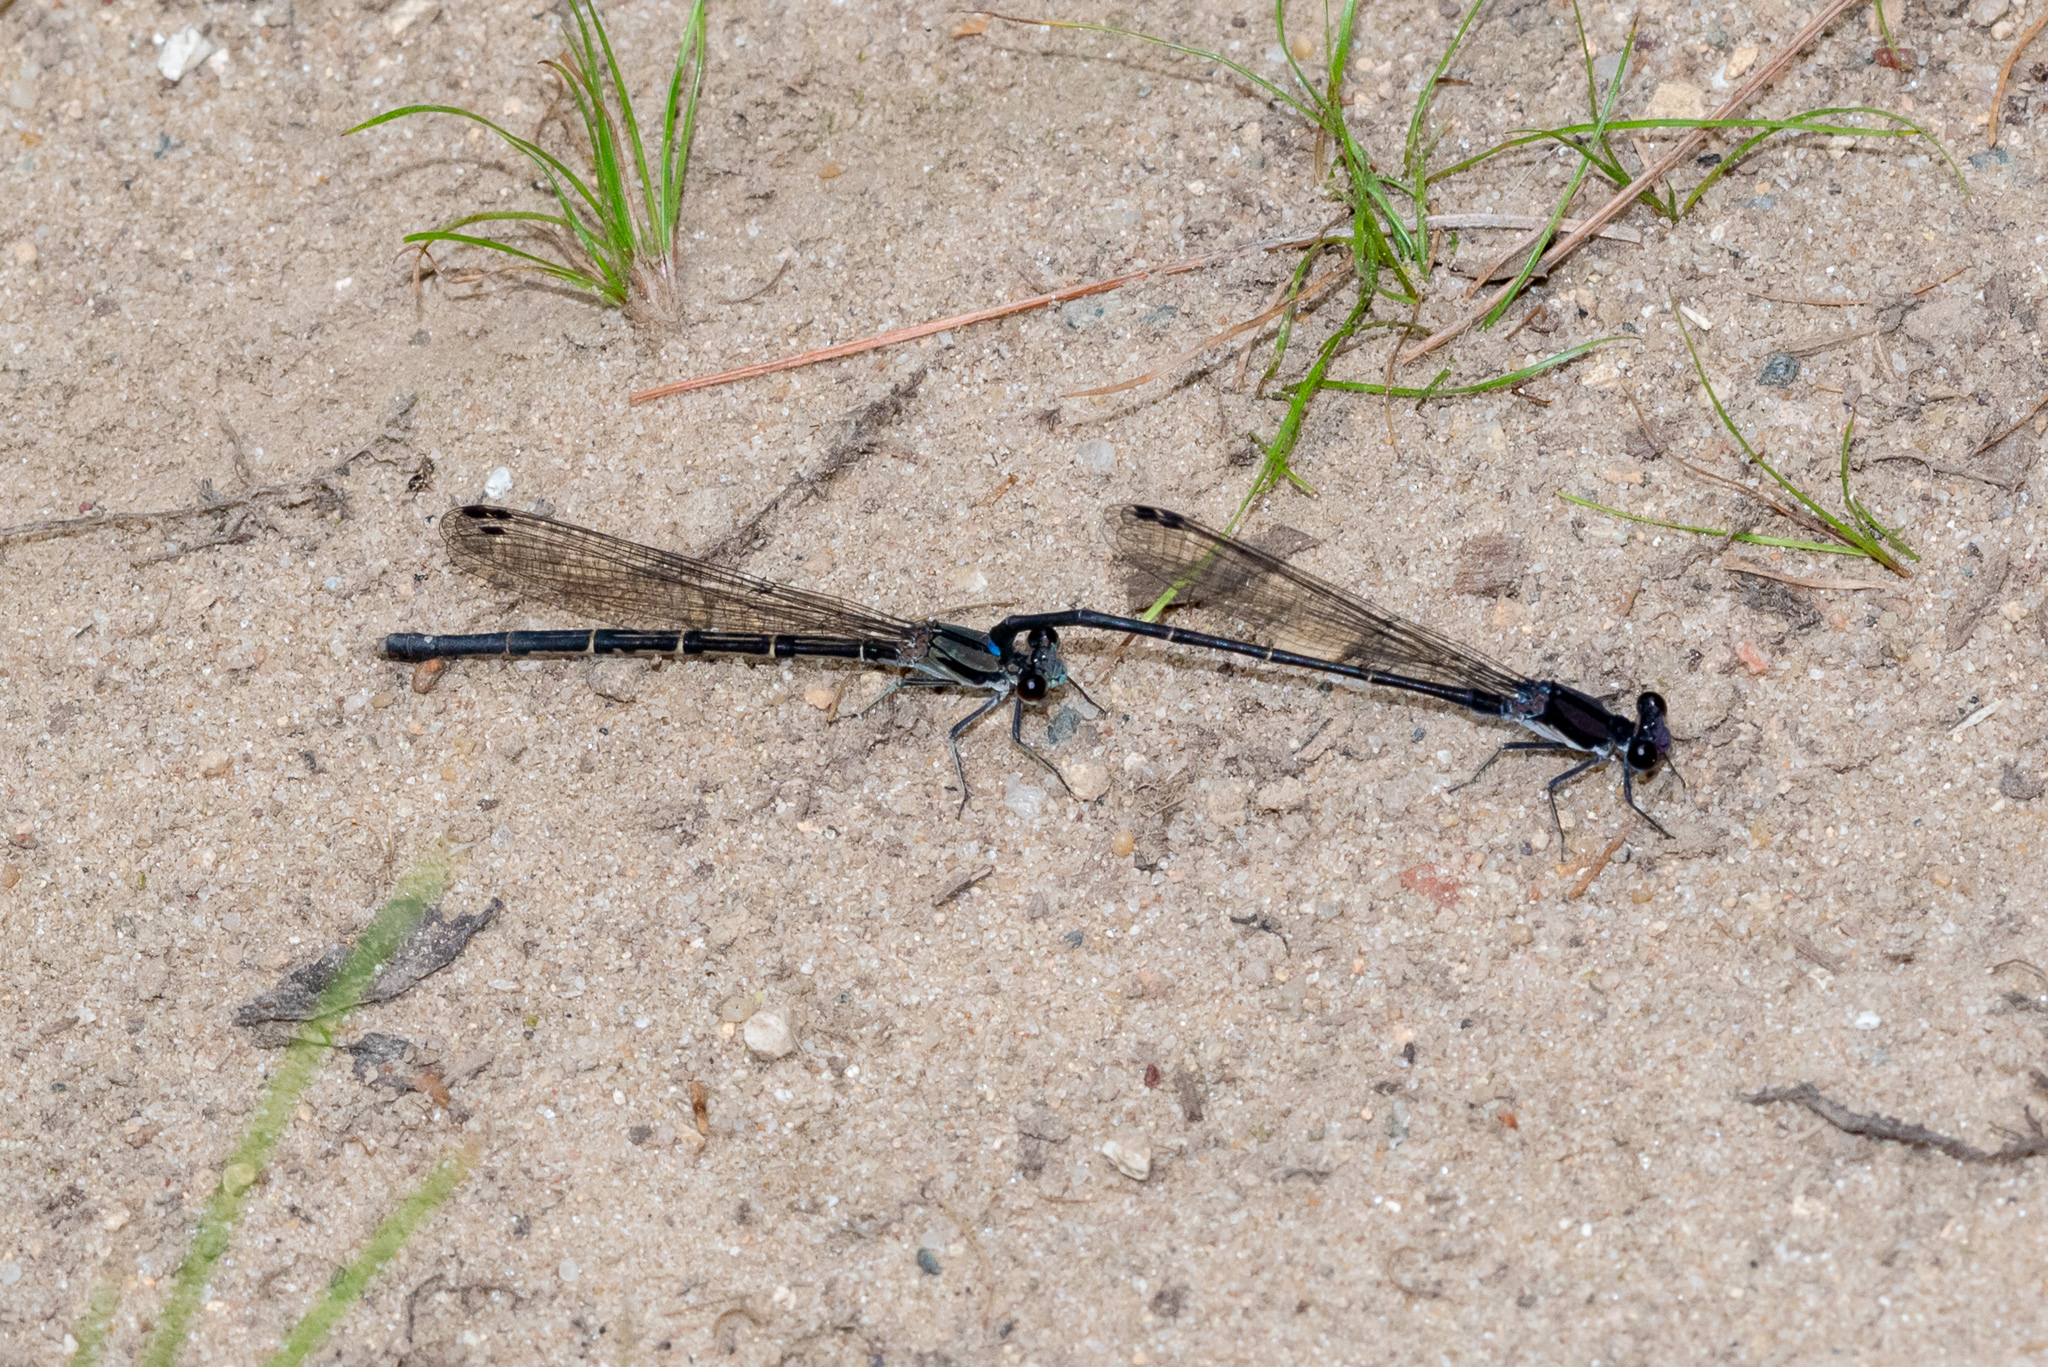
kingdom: Animalia
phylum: Arthropoda
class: Insecta
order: Odonata
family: Coenagrionidae
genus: Argia
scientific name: Argia tibialis
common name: Blue-tipped dancer
